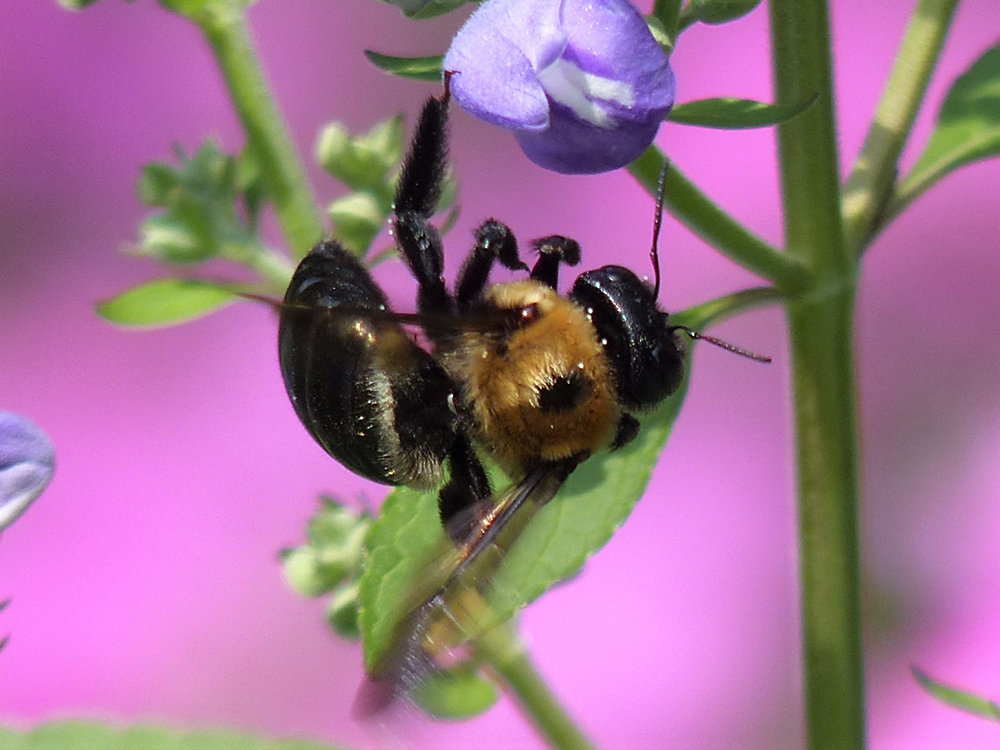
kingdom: Animalia
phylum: Arthropoda
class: Insecta
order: Hymenoptera
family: Apidae
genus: Xylocopa
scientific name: Xylocopa virginica
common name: Carpenter bee
